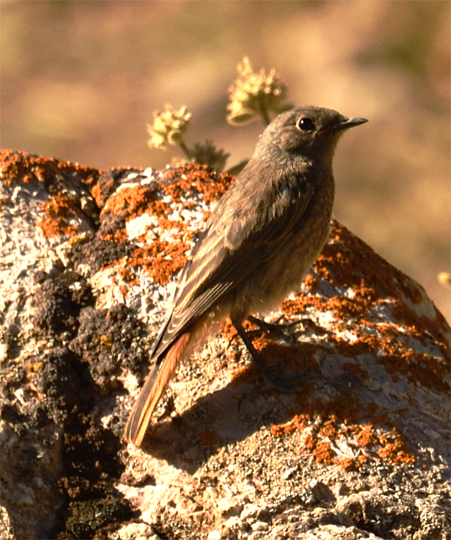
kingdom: Animalia
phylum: Chordata
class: Aves
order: Passeriformes
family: Muscicapidae
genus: Phoenicurus
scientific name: Phoenicurus ochruros
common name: Black redstart
